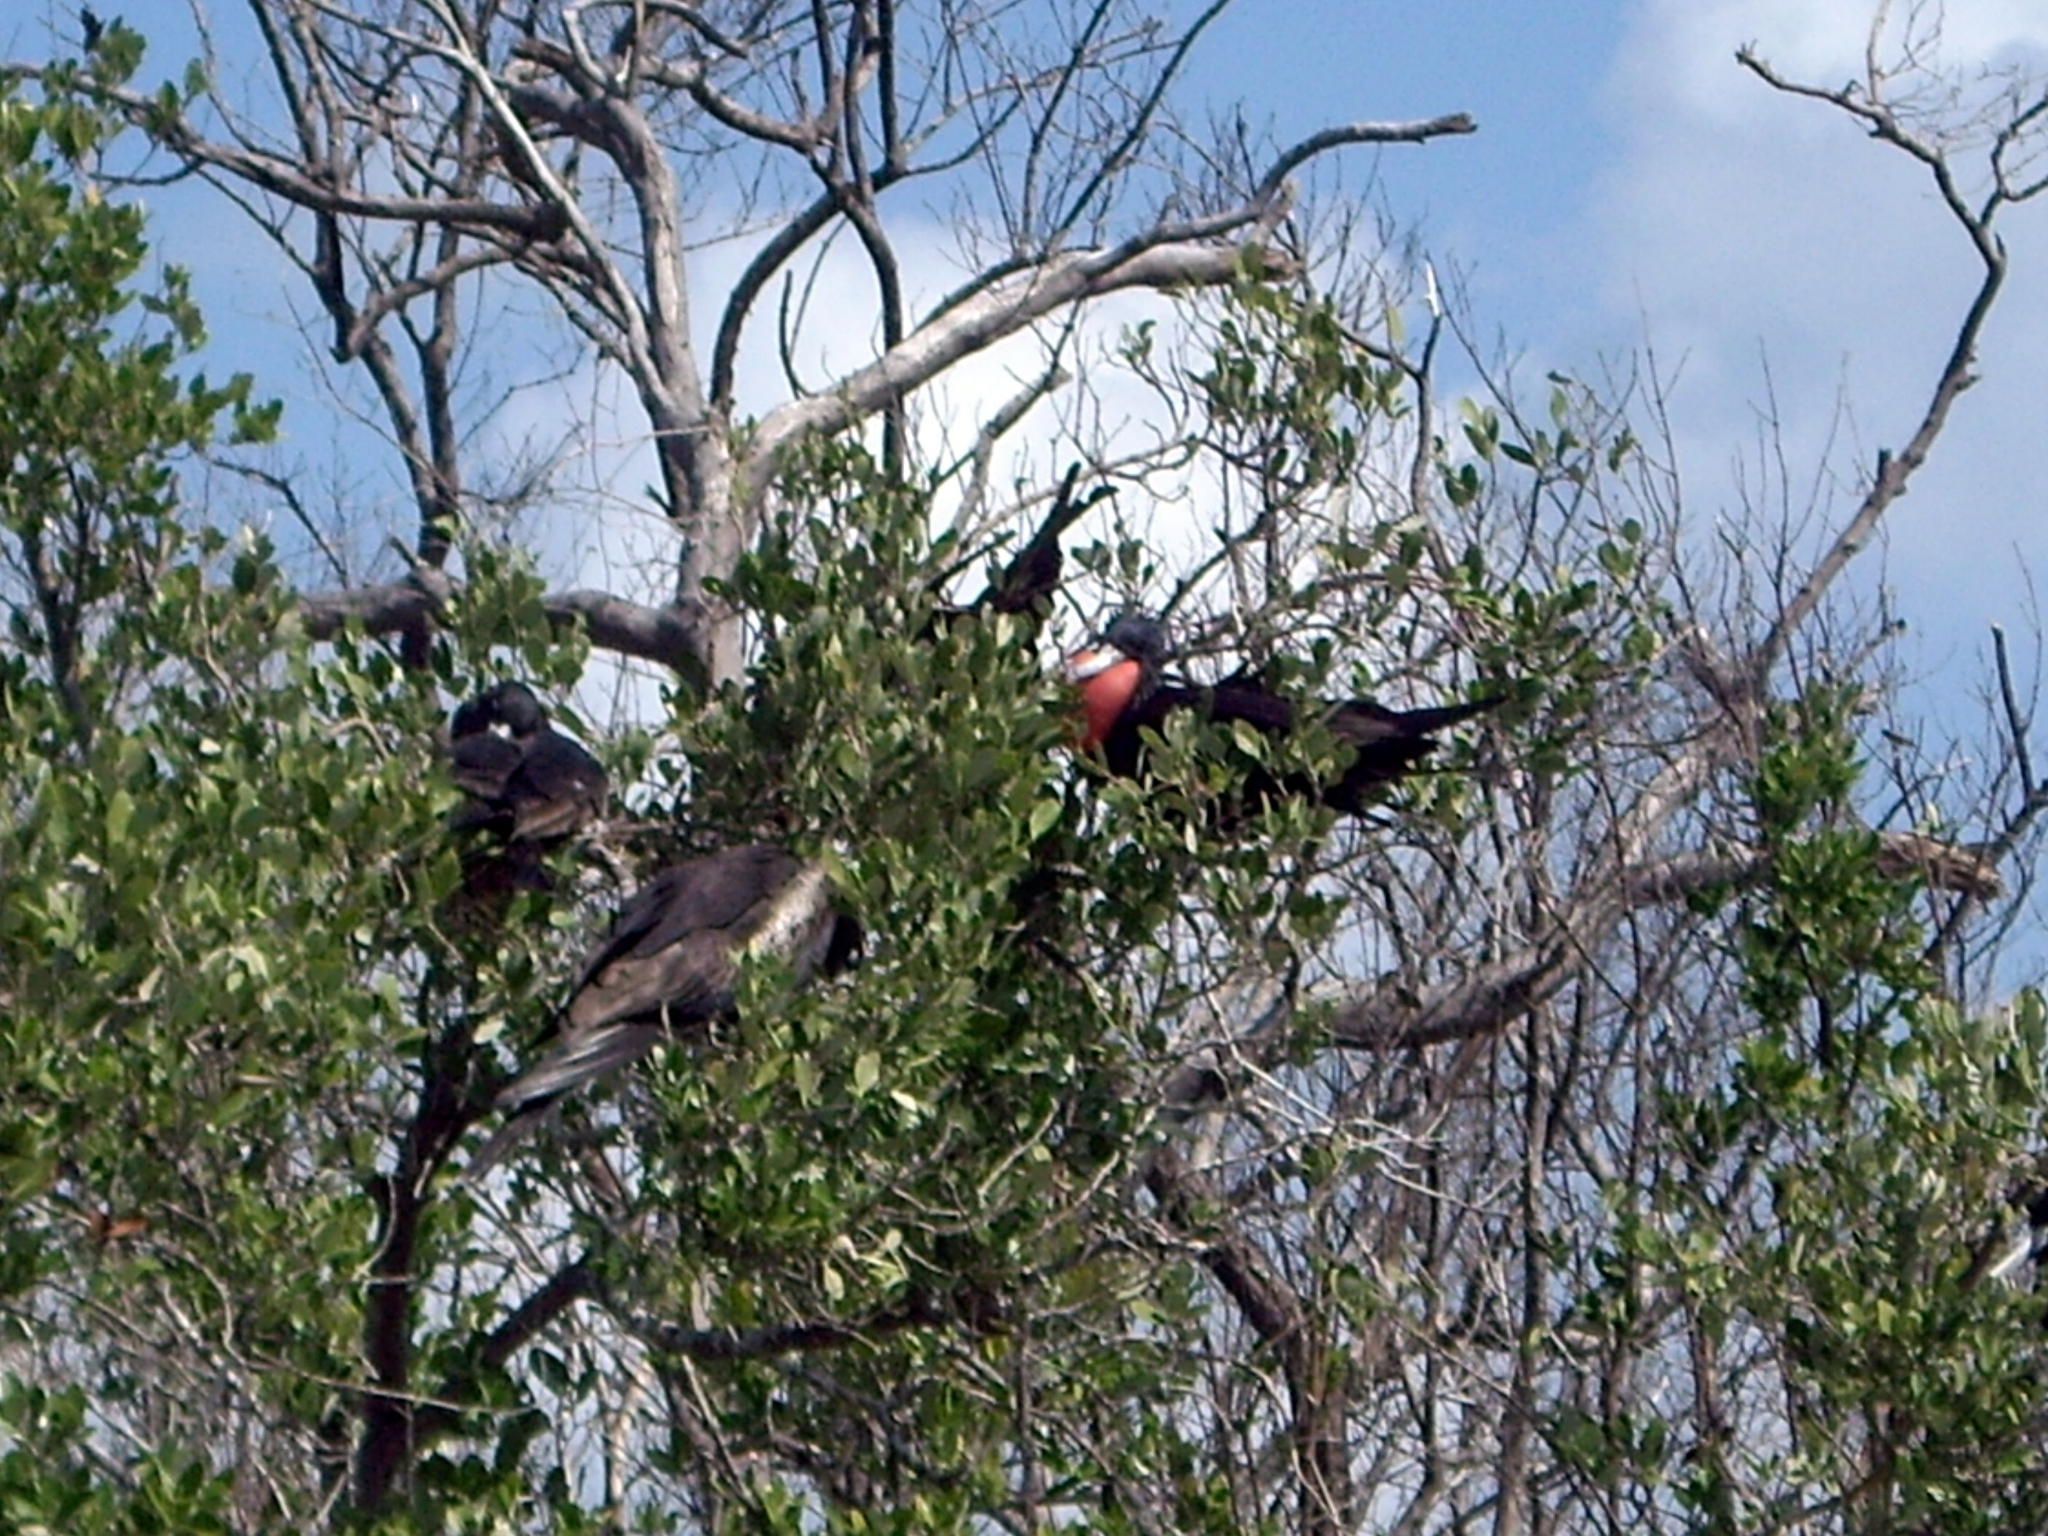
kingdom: Animalia
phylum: Chordata
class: Aves
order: Suliformes
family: Fregatidae
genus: Fregata
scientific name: Fregata magnificens
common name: Magnificent frigatebird
